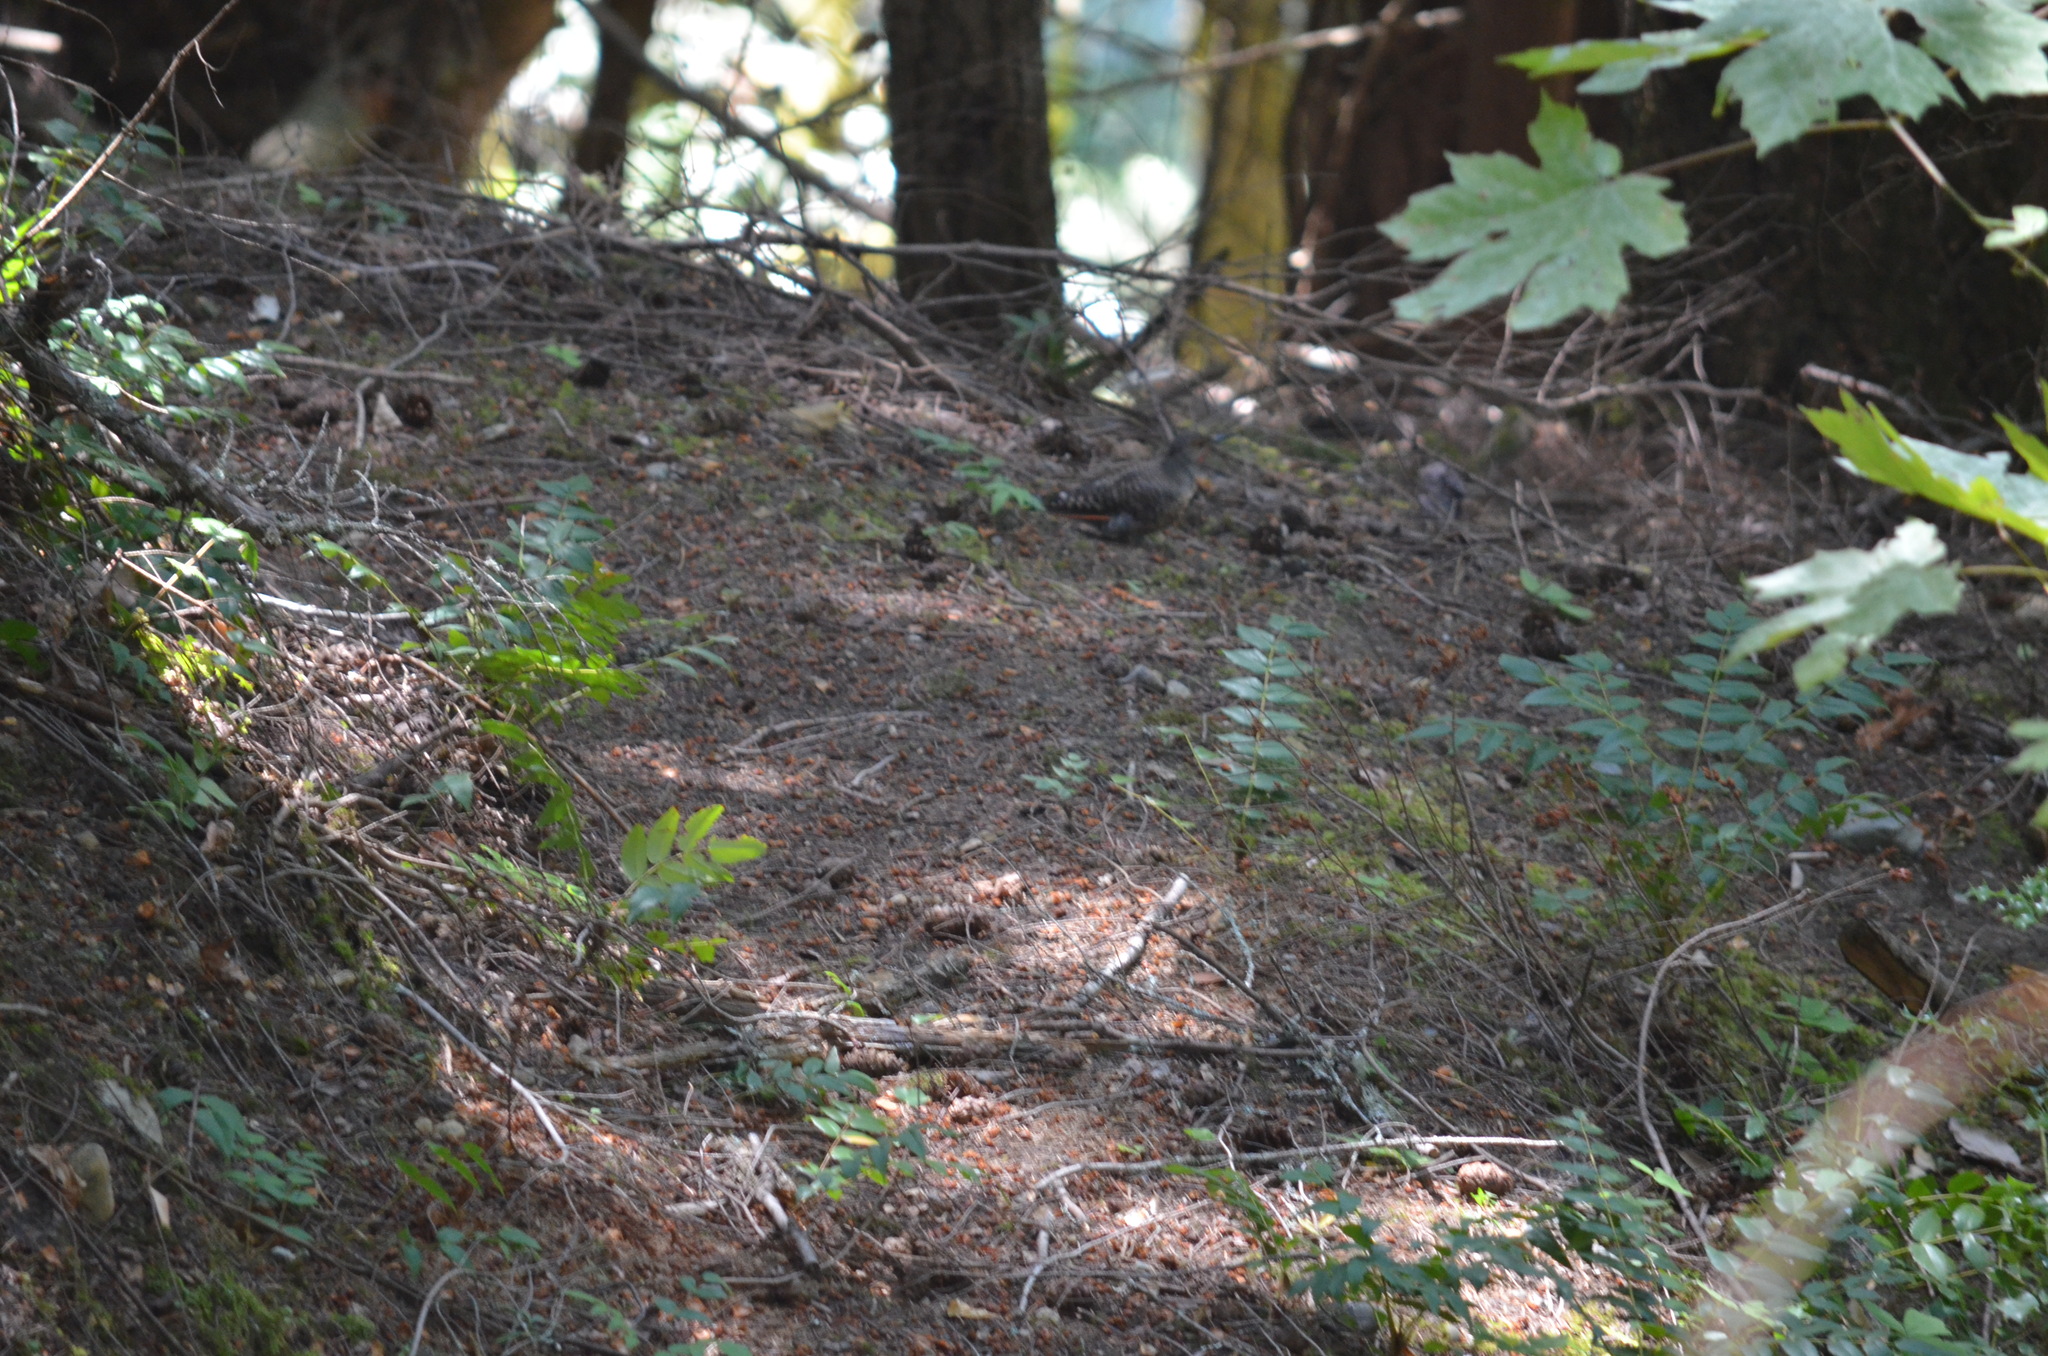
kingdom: Animalia
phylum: Chordata
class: Aves
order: Piciformes
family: Picidae
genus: Colaptes
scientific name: Colaptes auratus
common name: Northern flicker
